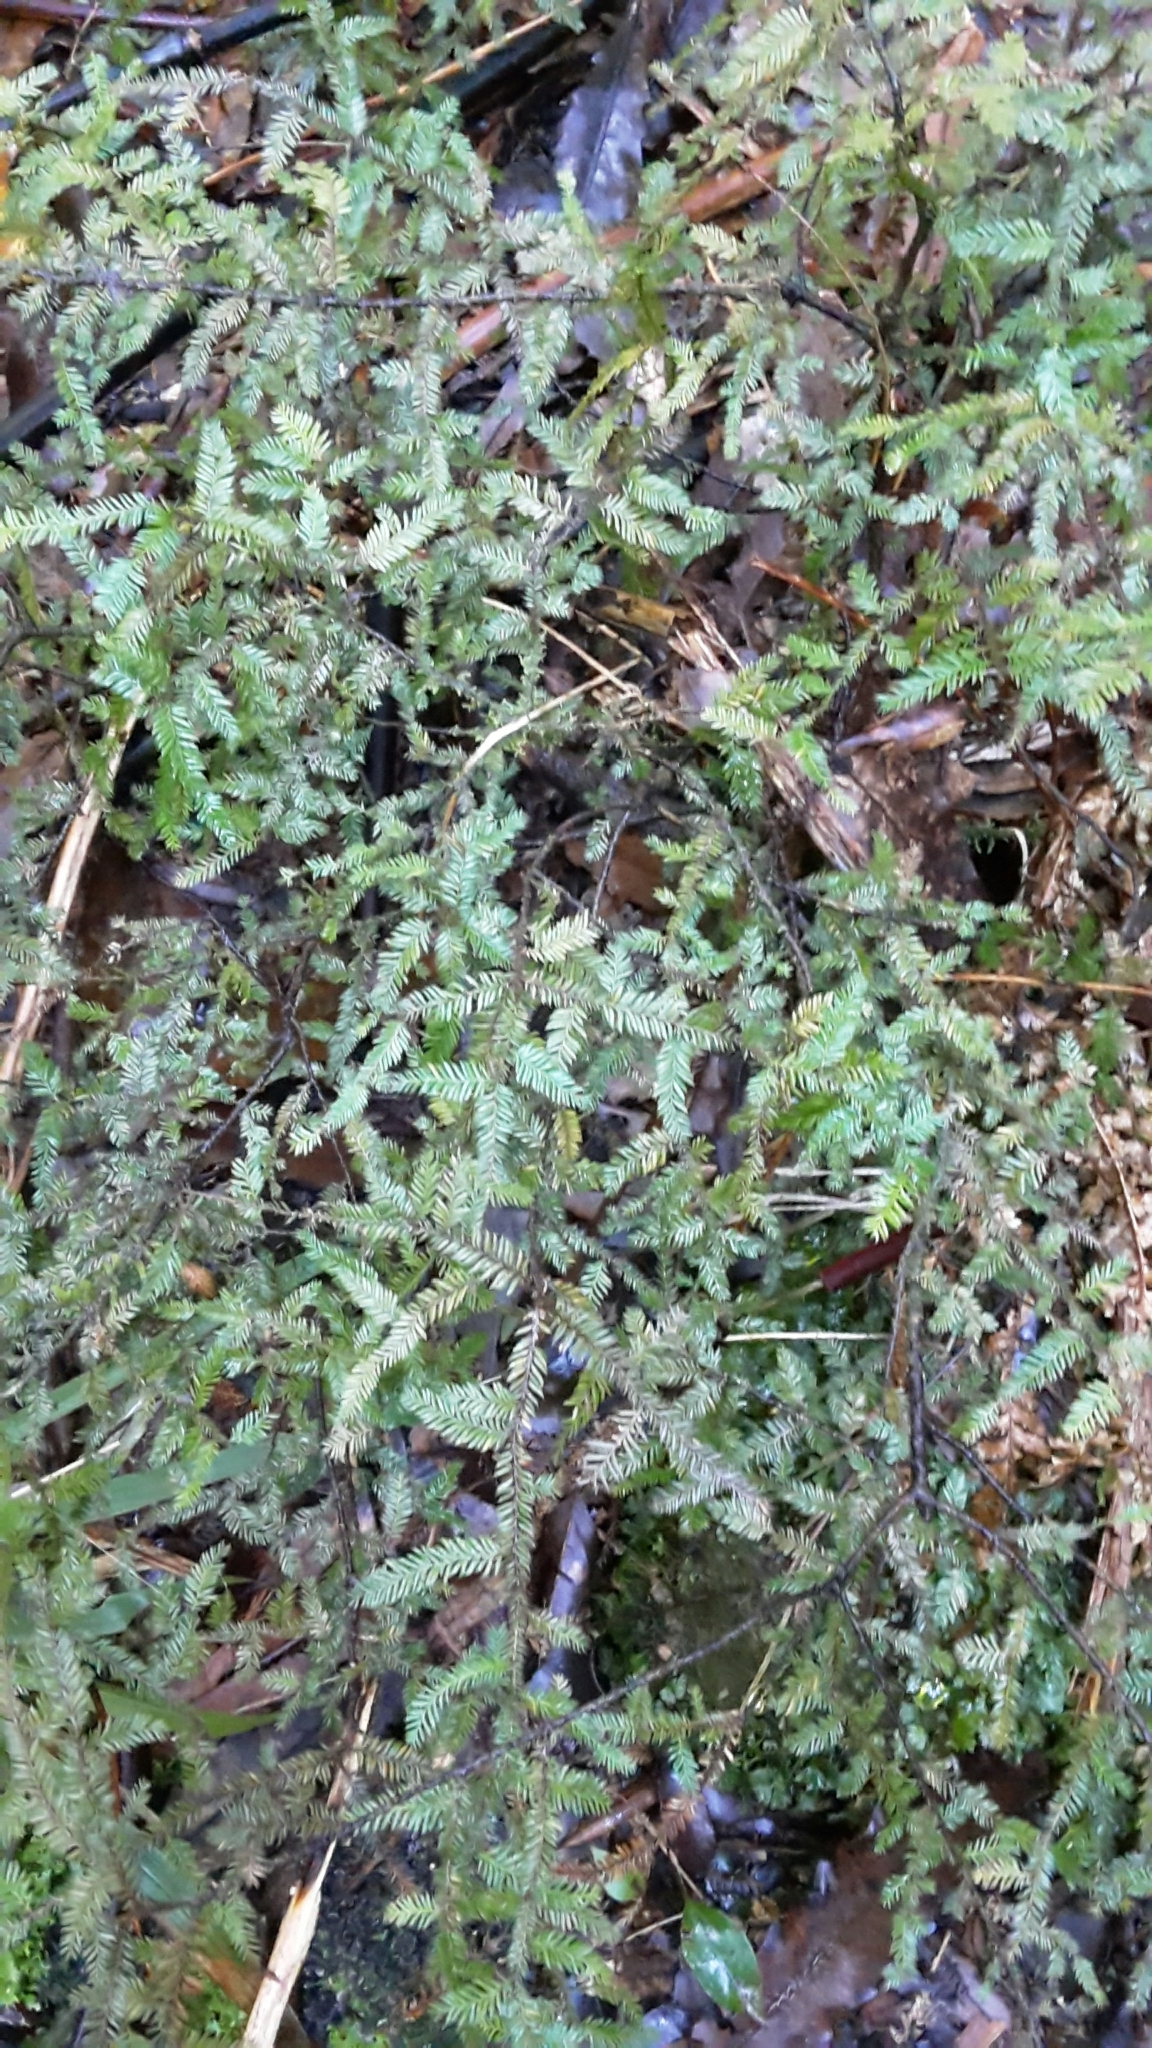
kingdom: Plantae
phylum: Tracheophyta
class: Pinopsida
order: Pinales
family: Podocarpaceae
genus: Dacrycarpus
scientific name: Dacrycarpus dacrydioides
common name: White pine
